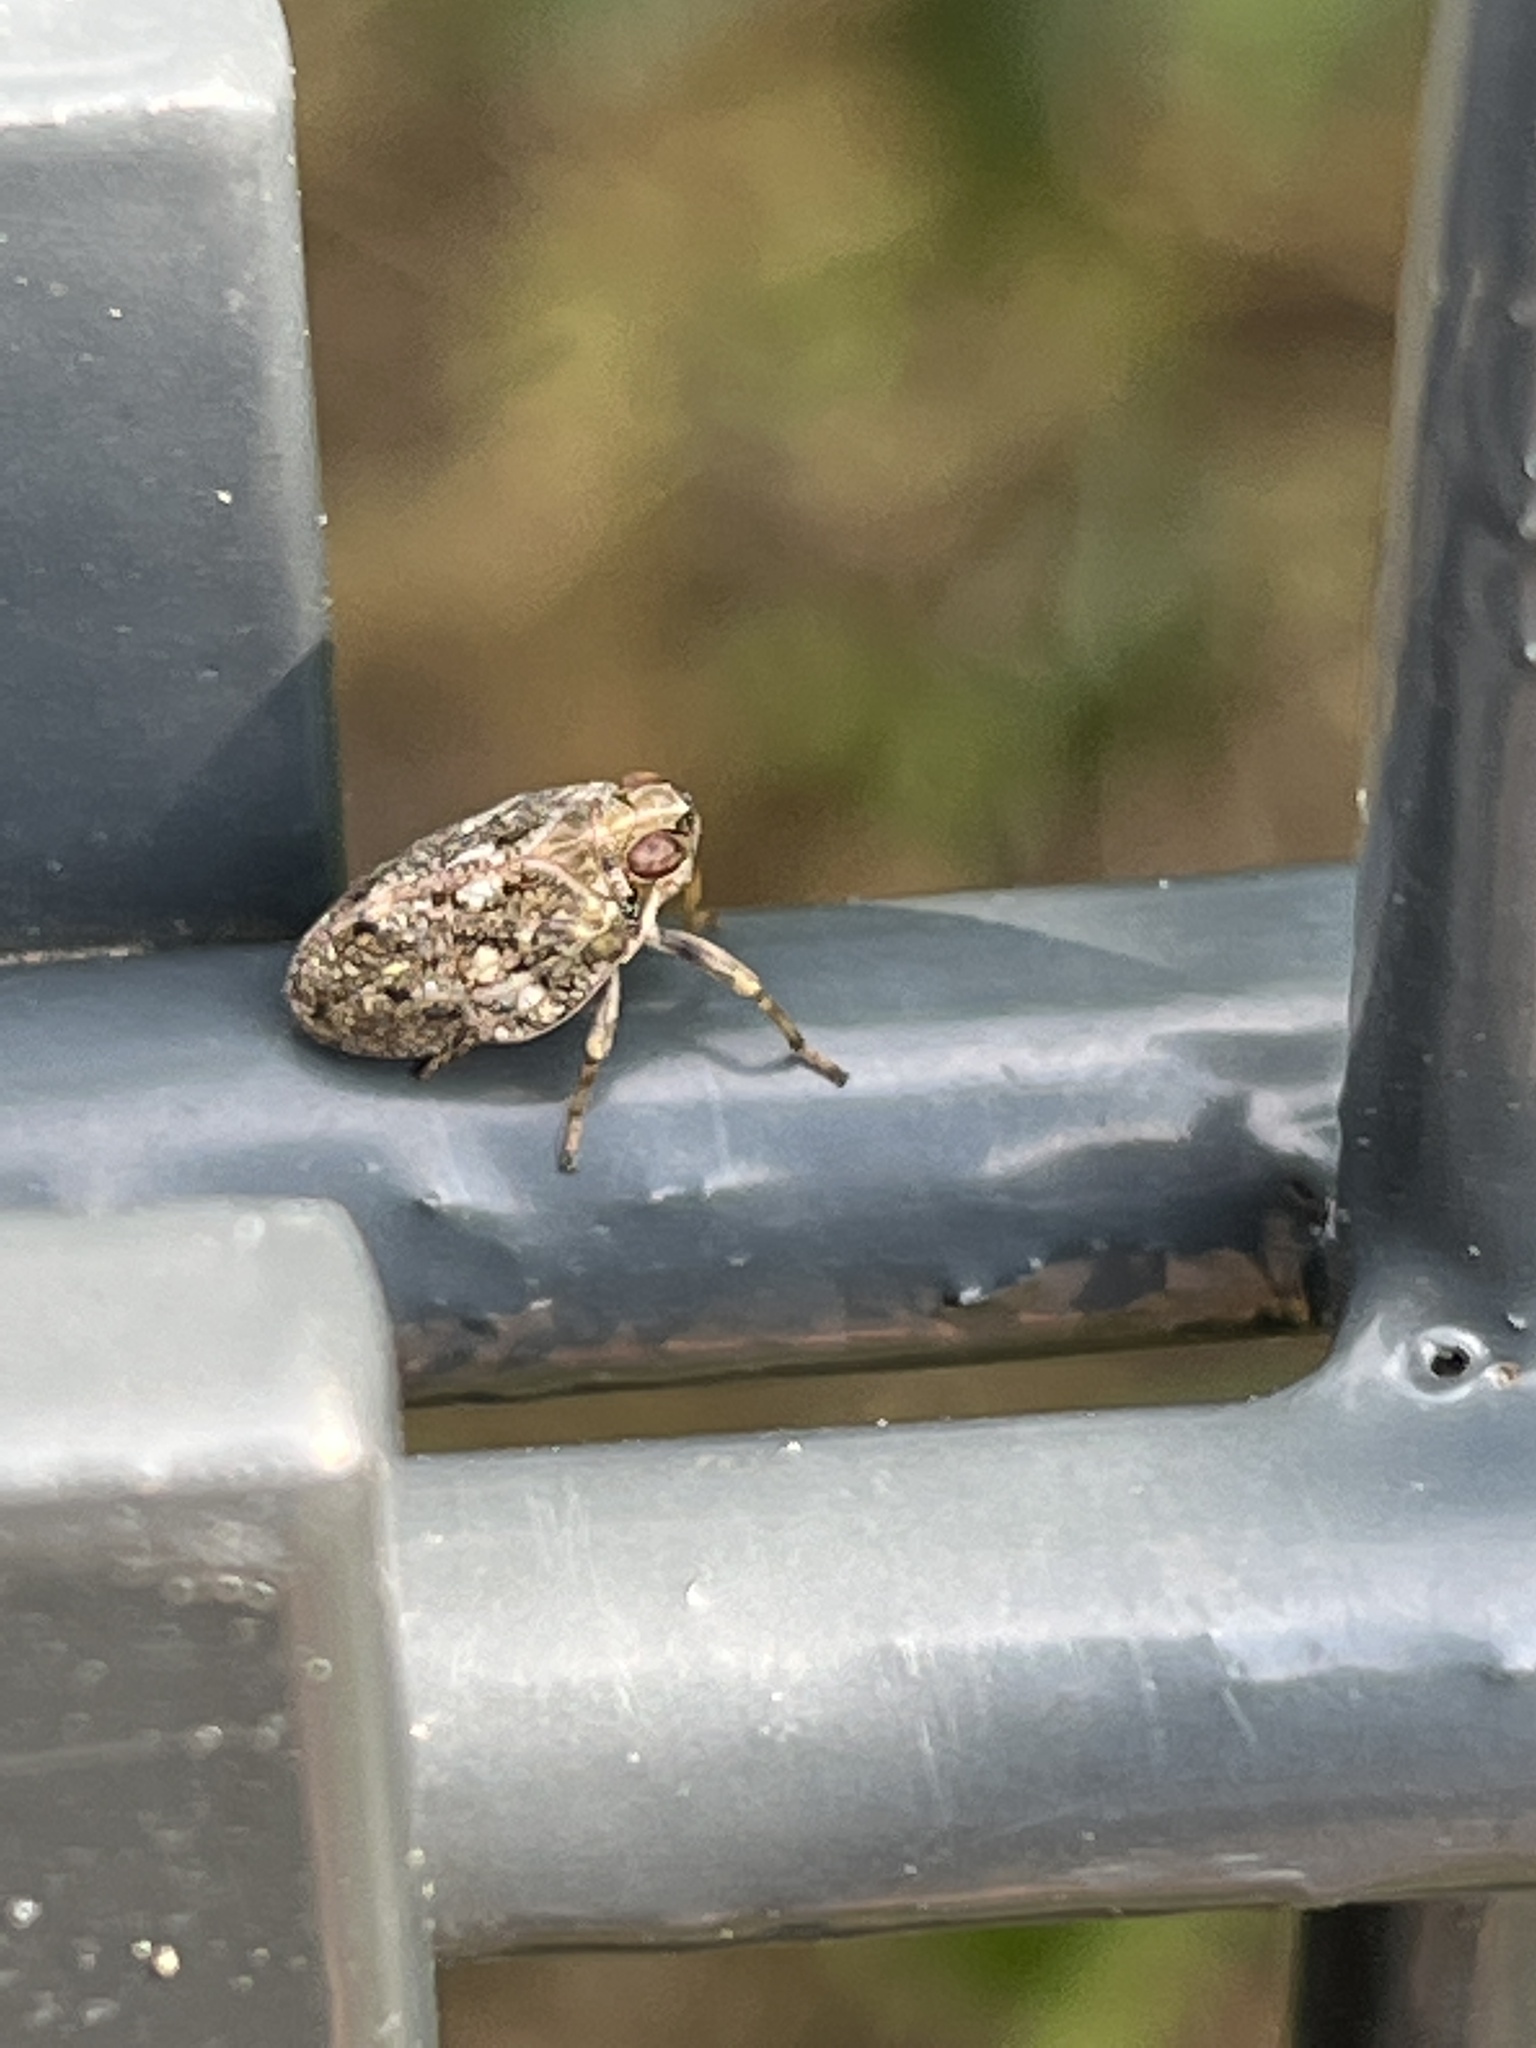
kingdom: Animalia
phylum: Arthropoda
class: Insecta
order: Hemiptera
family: Issidae
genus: Issus
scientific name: Issus coleoptratus
